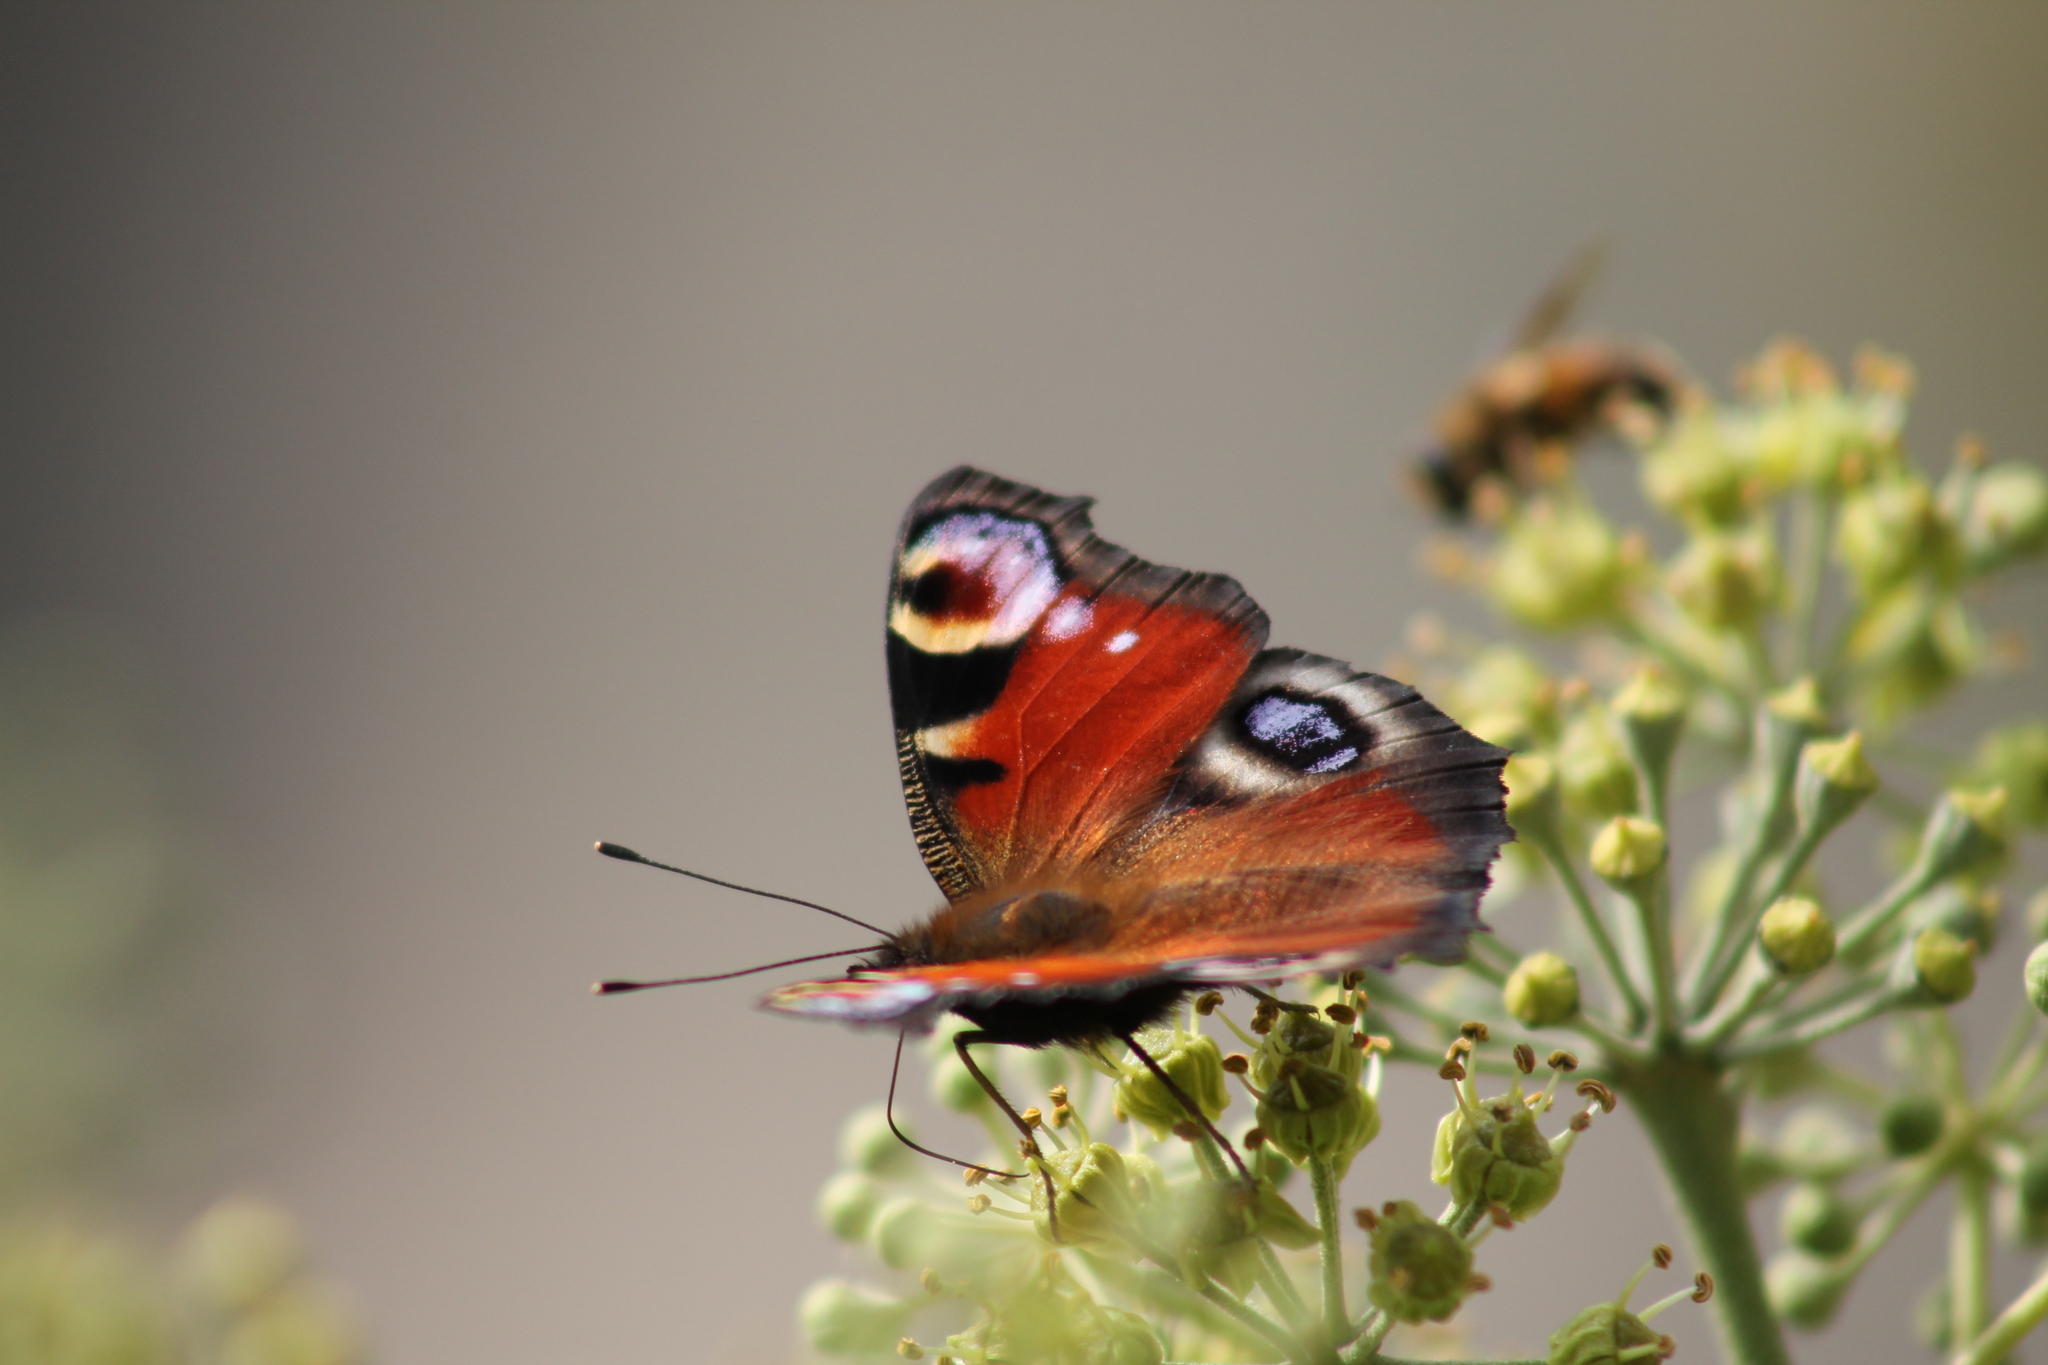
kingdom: Animalia
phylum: Arthropoda
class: Insecta
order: Lepidoptera
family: Nymphalidae
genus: Aglais
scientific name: Aglais io
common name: Peacock
